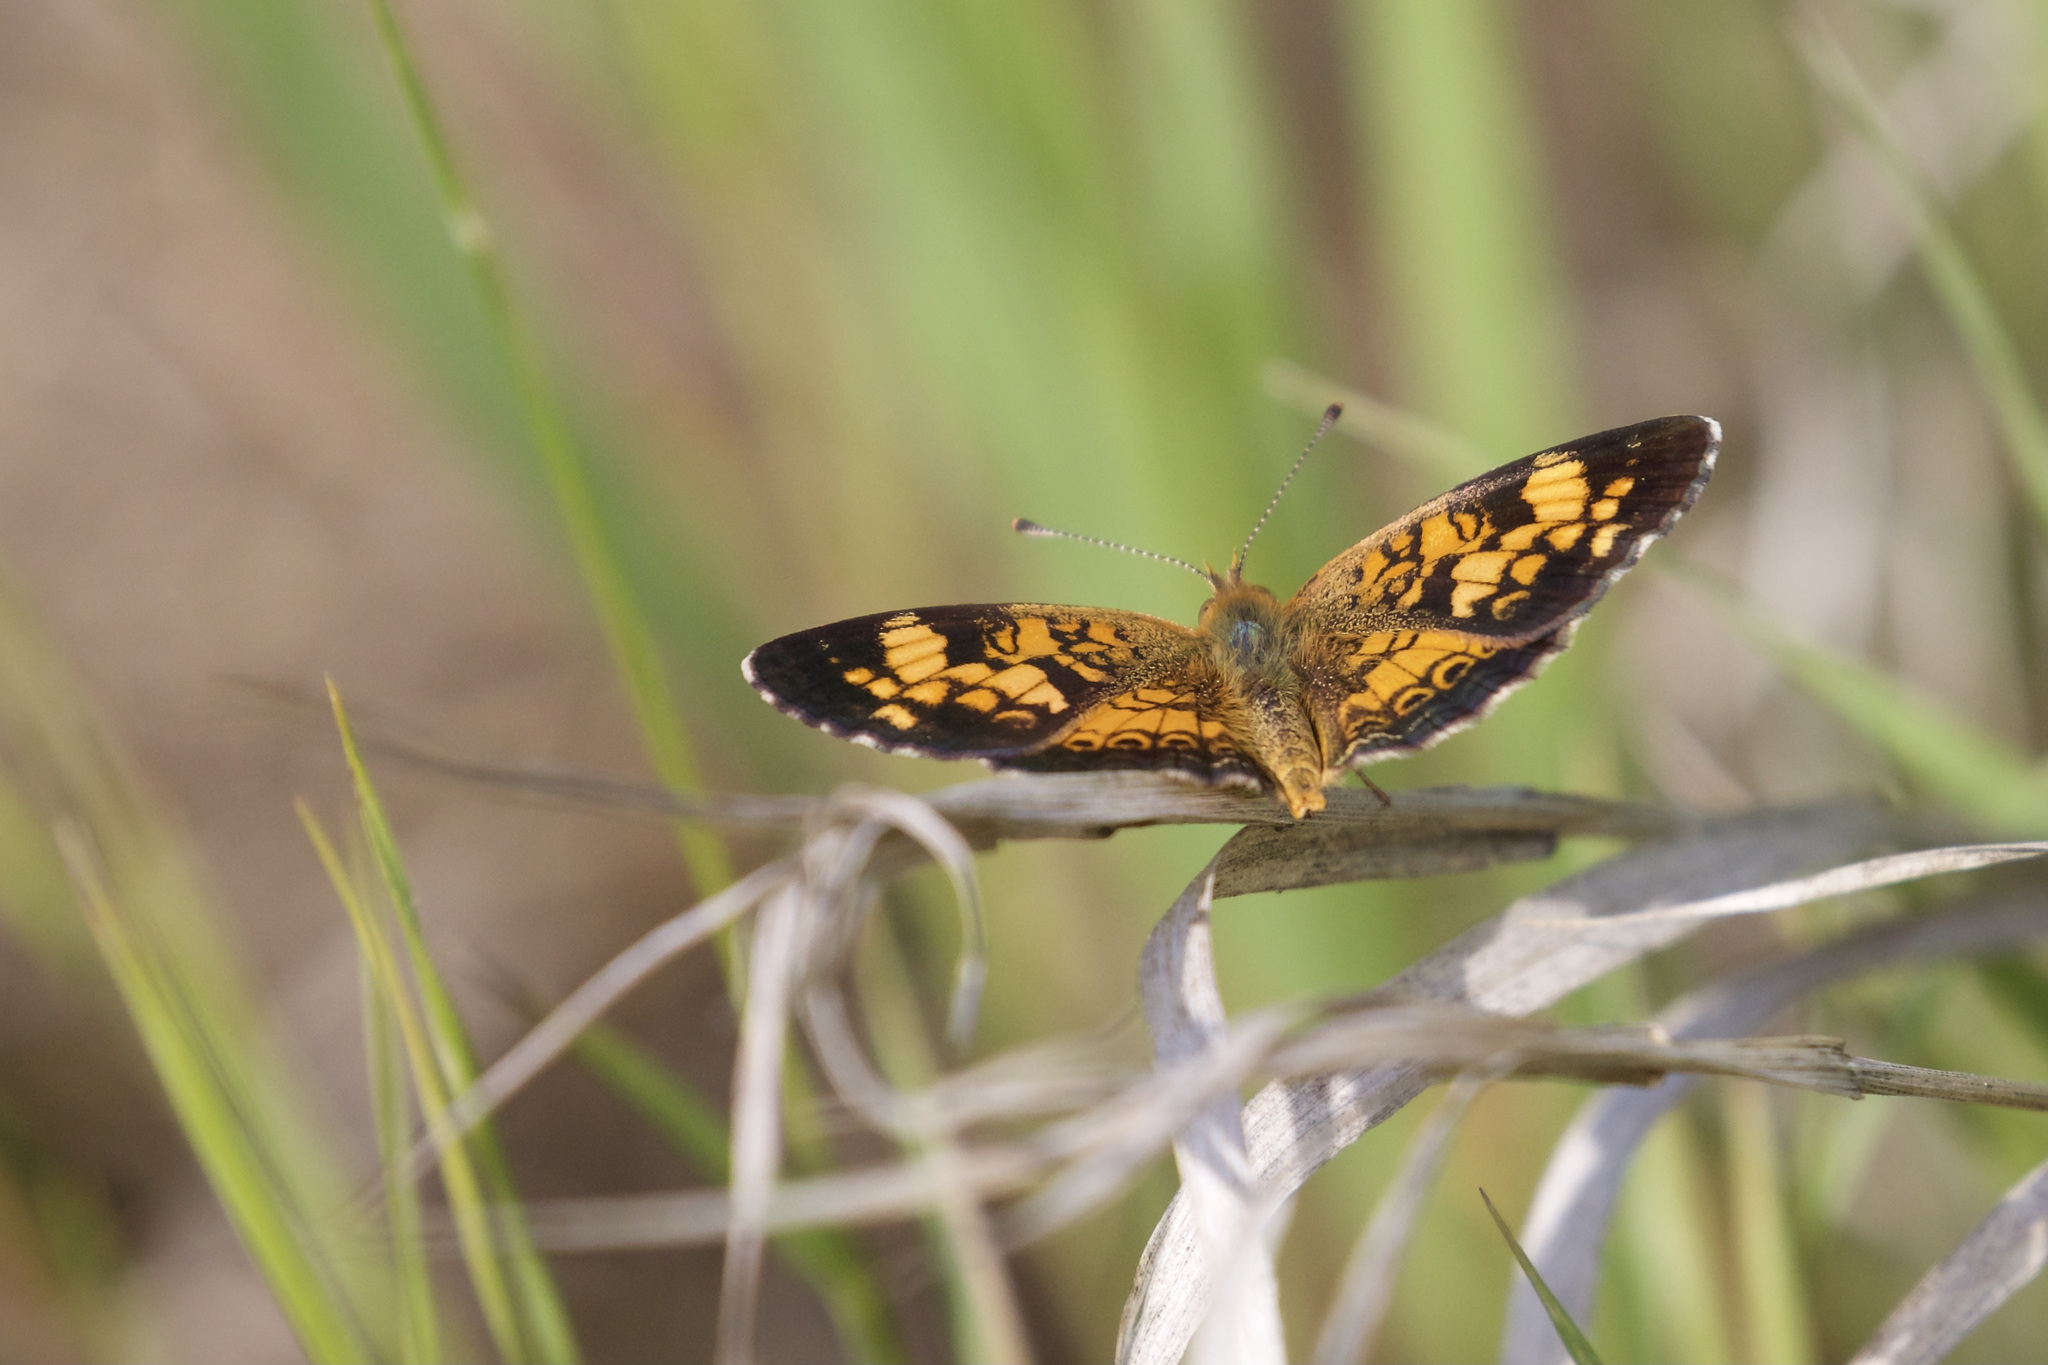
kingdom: Animalia
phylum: Arthropoda
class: Insecta
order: Lepidoptera
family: Nymphalidae
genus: Phyciodes
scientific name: Phyciodes tharos
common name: Pearl crescent
